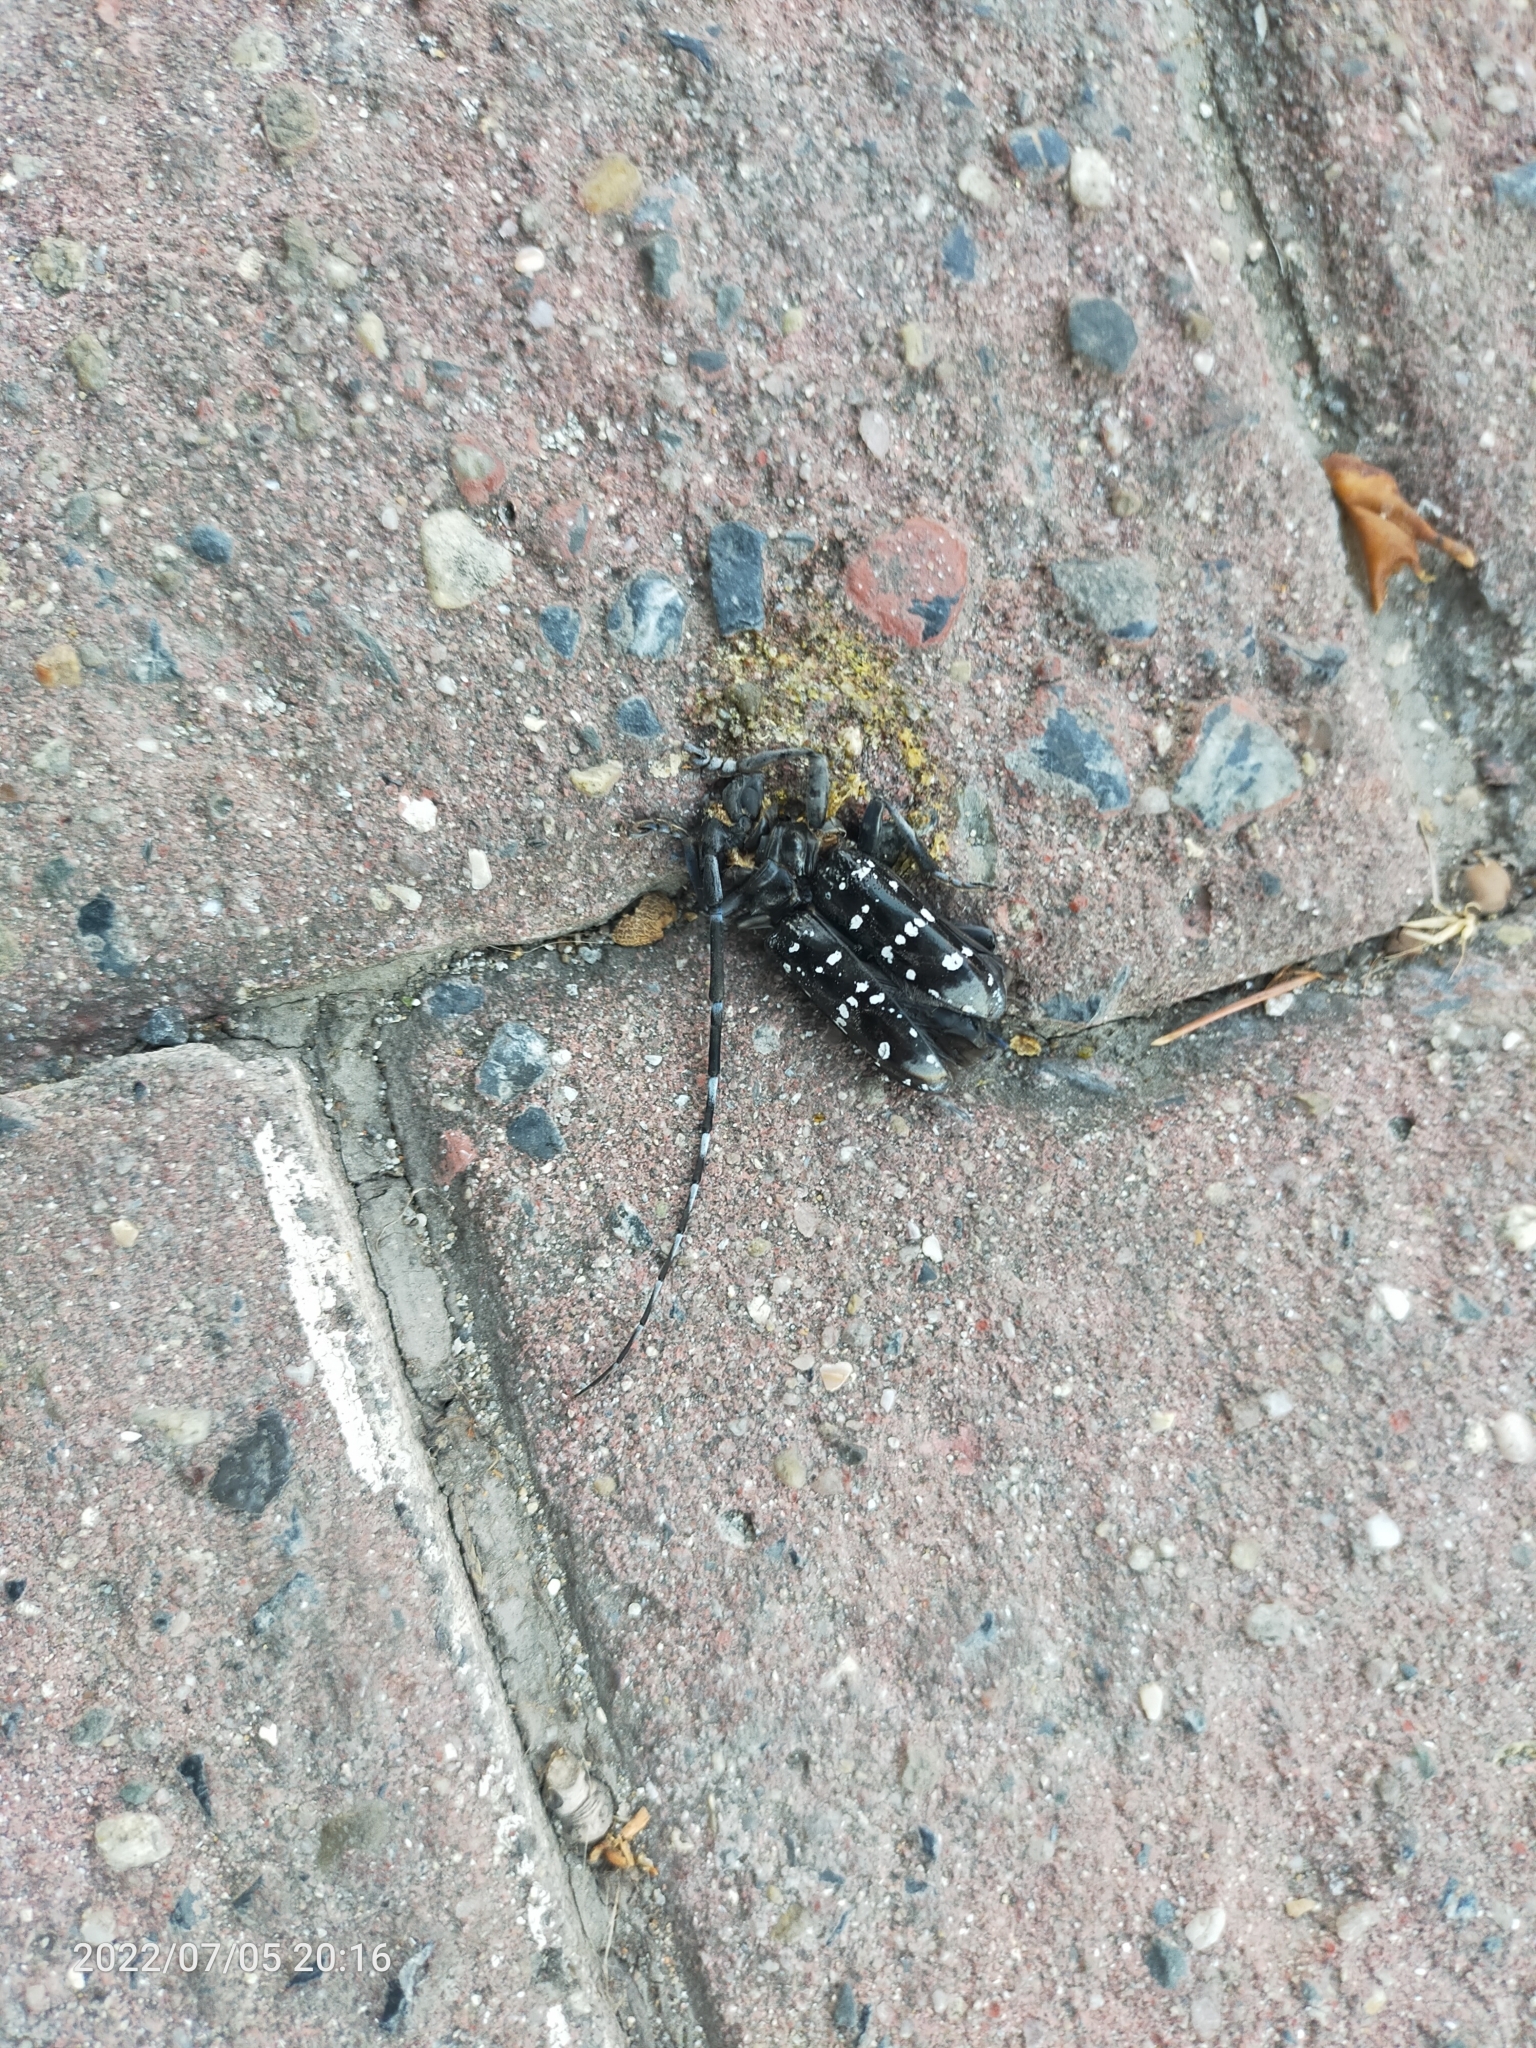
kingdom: Animalia
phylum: Arthropoda
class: Insecta
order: Coleoptera
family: Cerambycidae
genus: Anoplophora
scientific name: Anoplophora chinensis
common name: Citrus longhorned beetle
